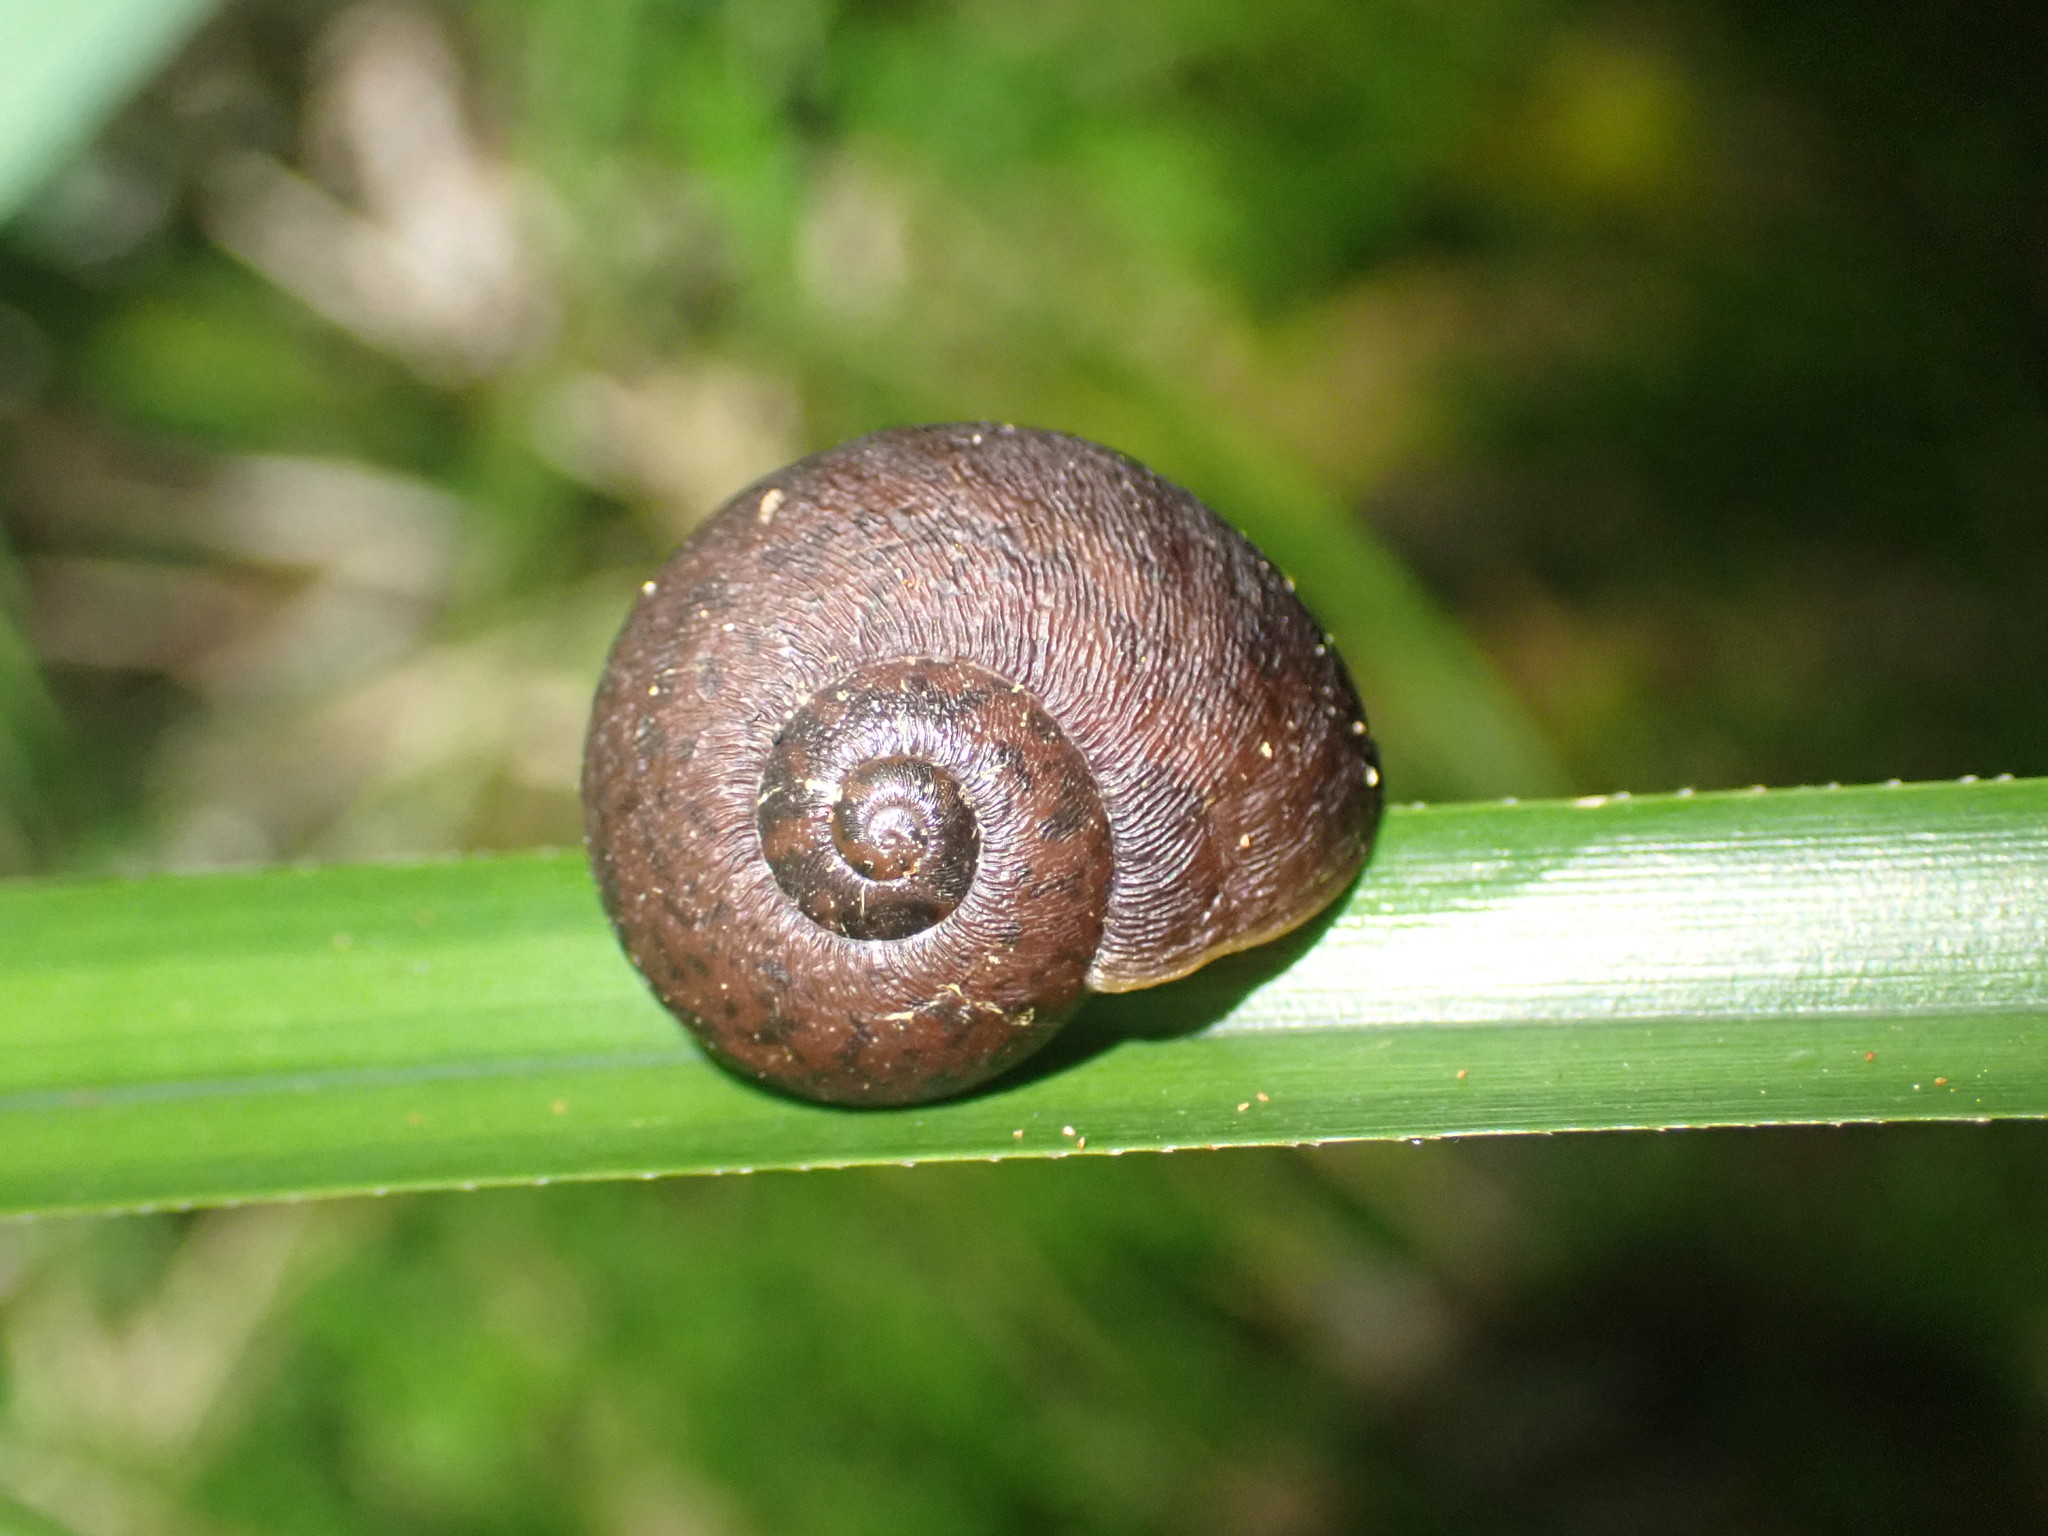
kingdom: Animalia
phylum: Mollusca
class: Gastropoda
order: Stylommatophora
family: Rhytididae
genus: Rhytida
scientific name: Rhytida greenwoodi
